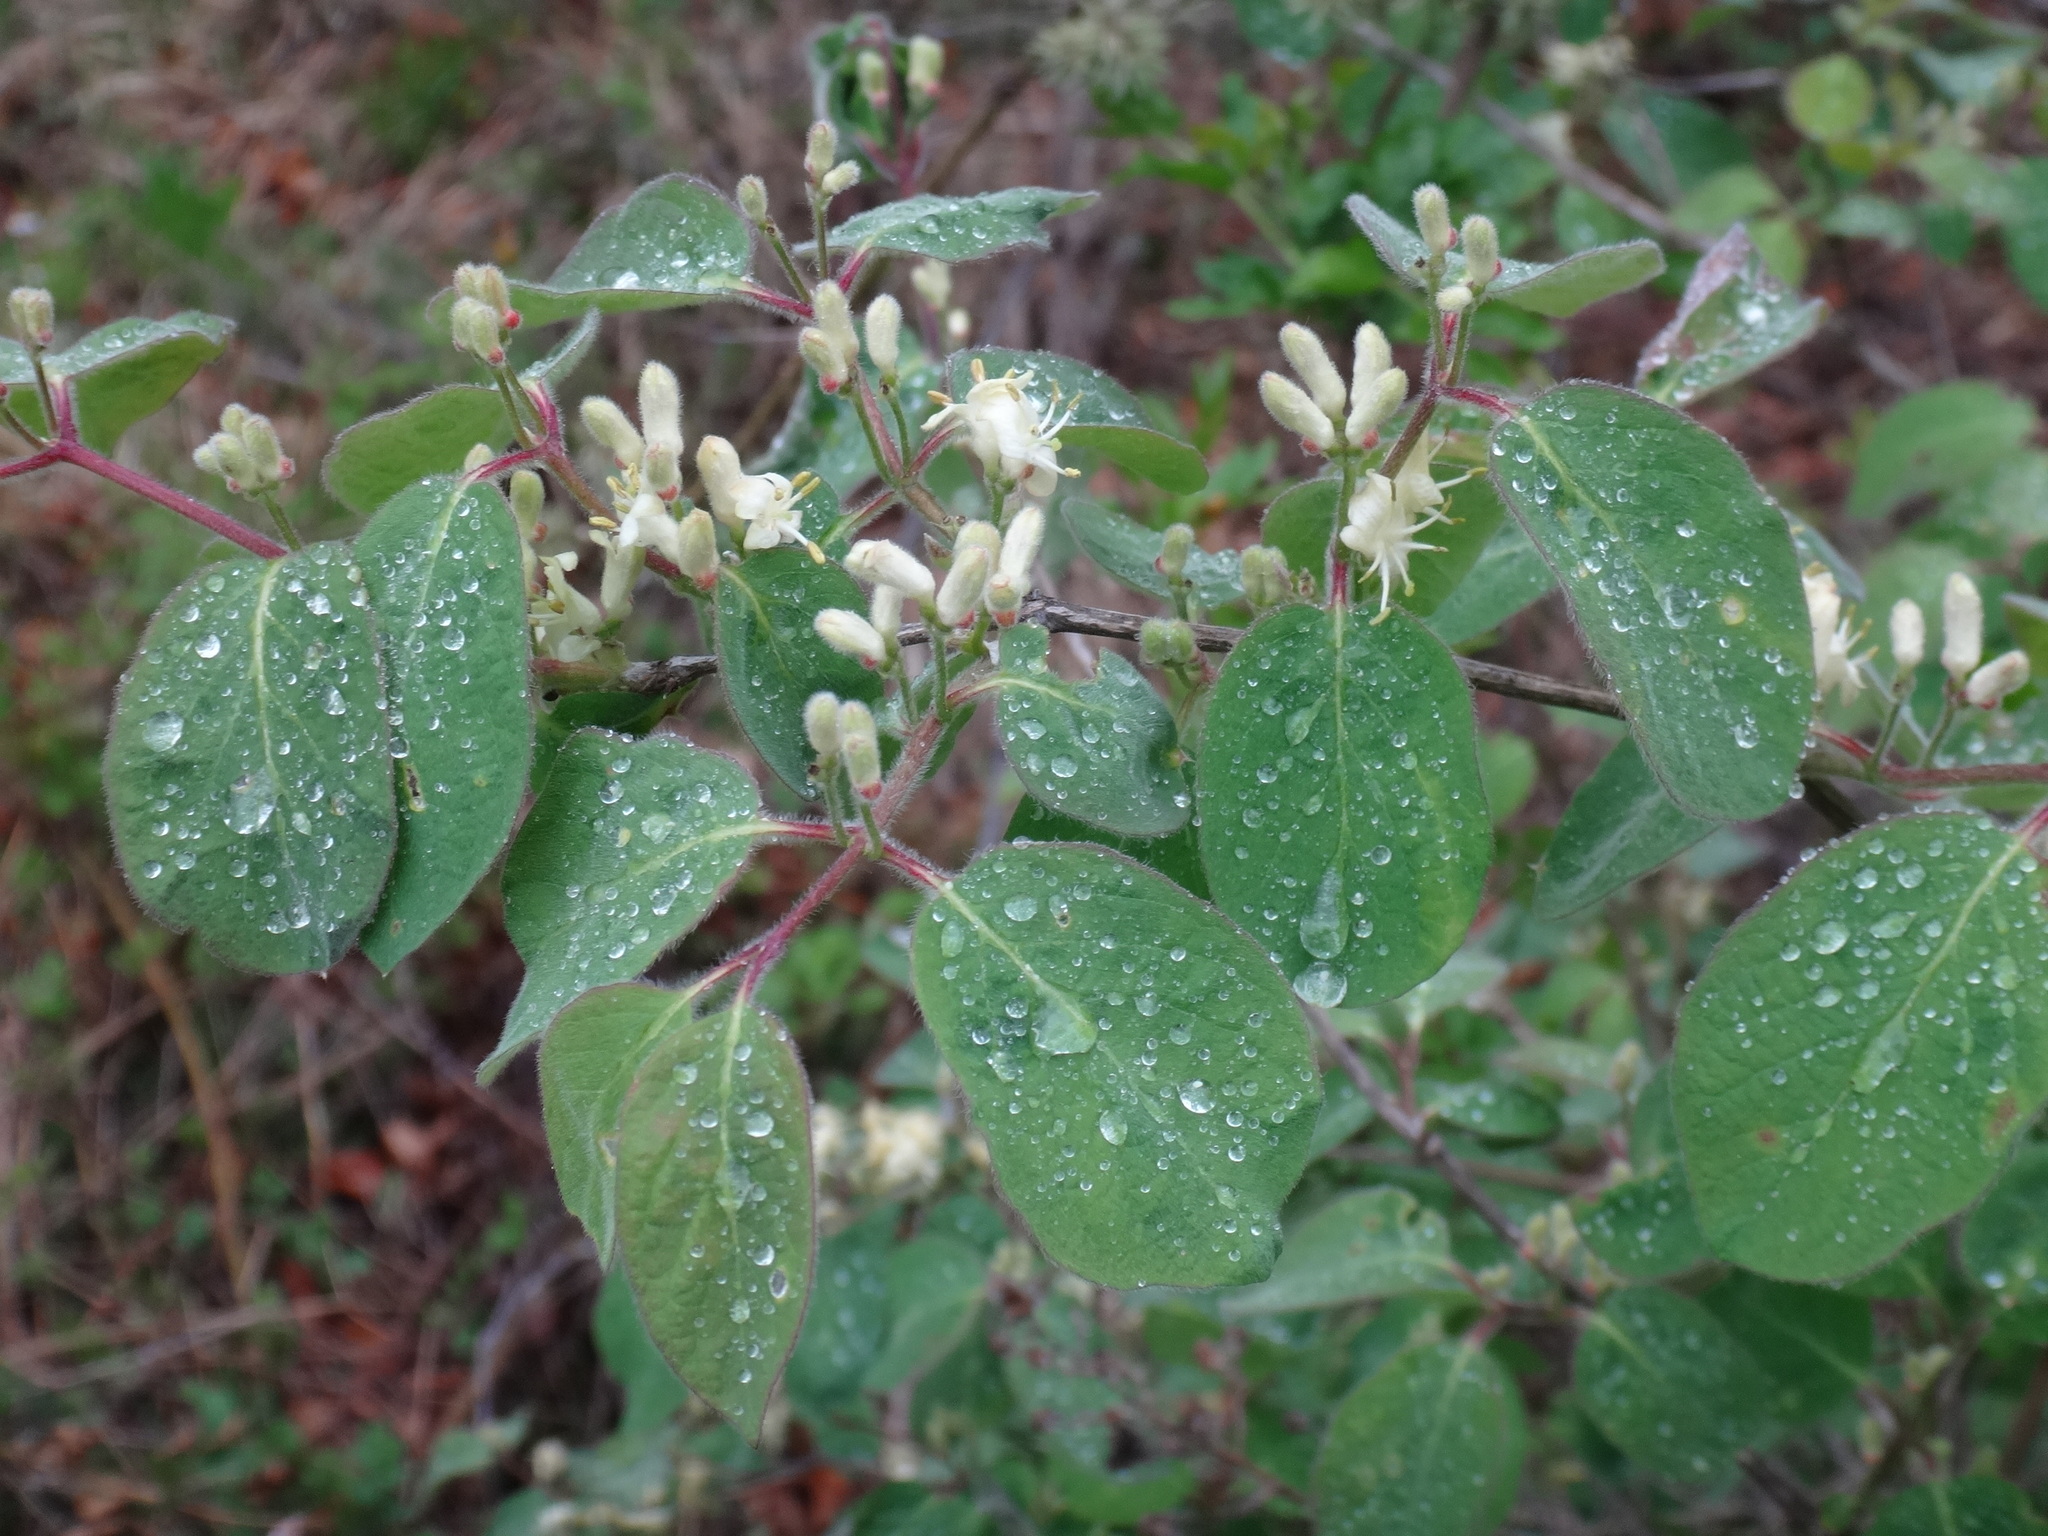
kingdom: Plantae
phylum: Tracheophyta
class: Magnoliopsida
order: Dipsacales
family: Caprifoliaceae
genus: Lonicera
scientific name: Lonicera xylosteum
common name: Fly honeysuckle
